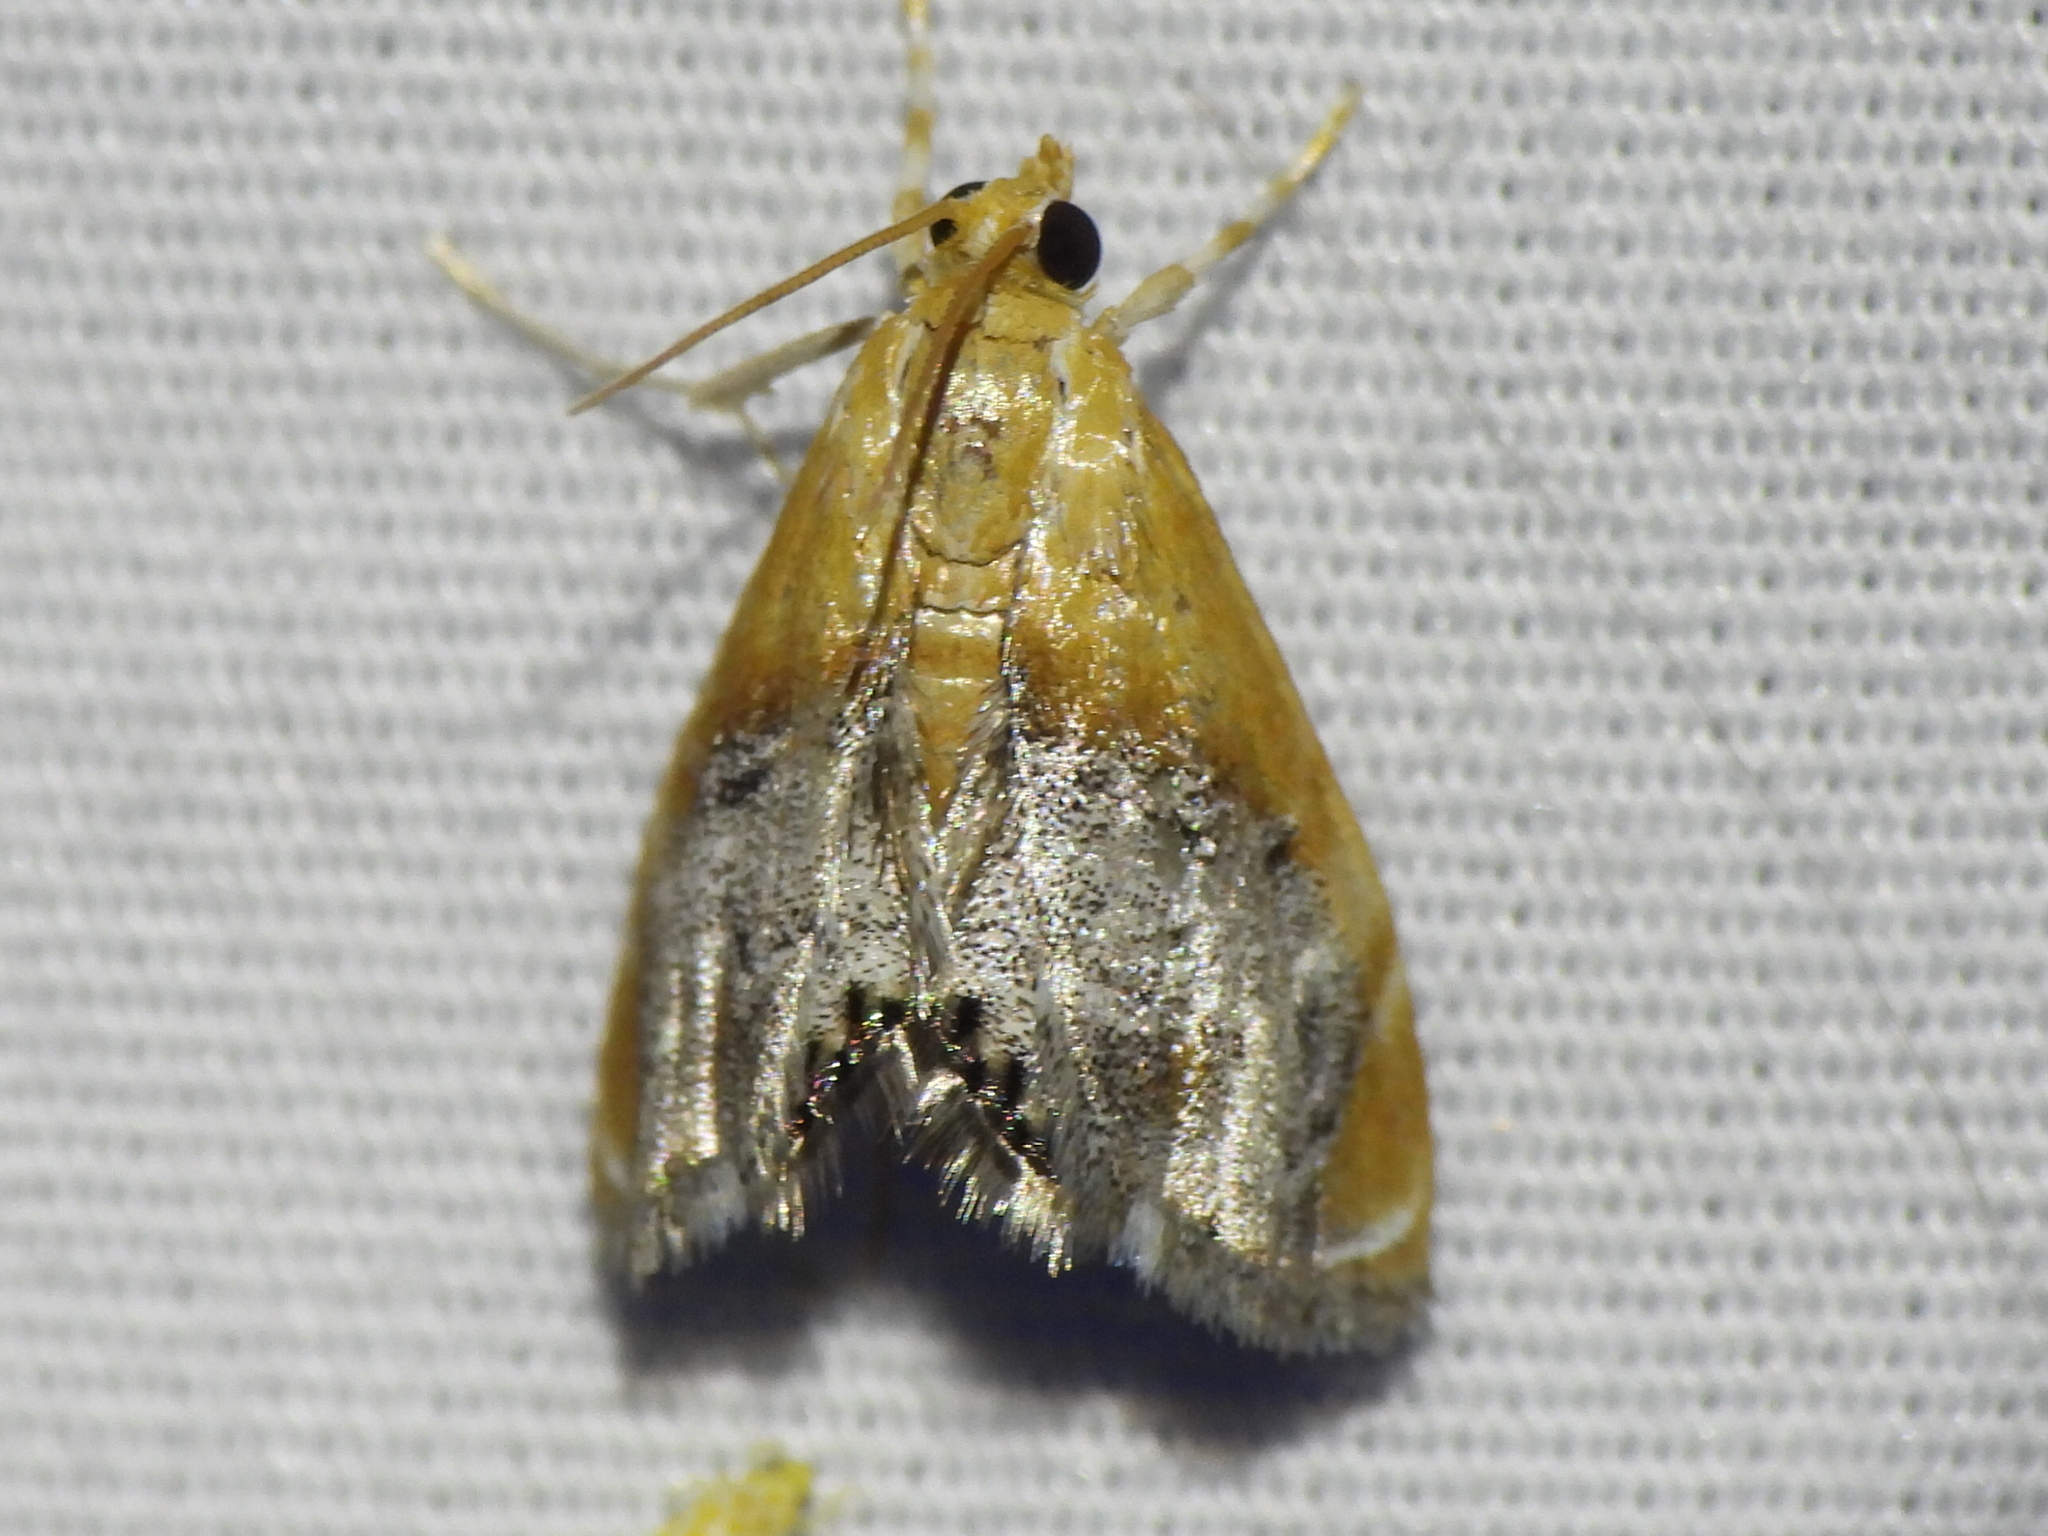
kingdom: Animalia
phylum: Arthropoda
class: Insecta
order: Lepidoptera
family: Crambidae
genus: Chalcoela
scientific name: Chalcoela iphitalis
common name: Sooty-winged chalcoela moth
